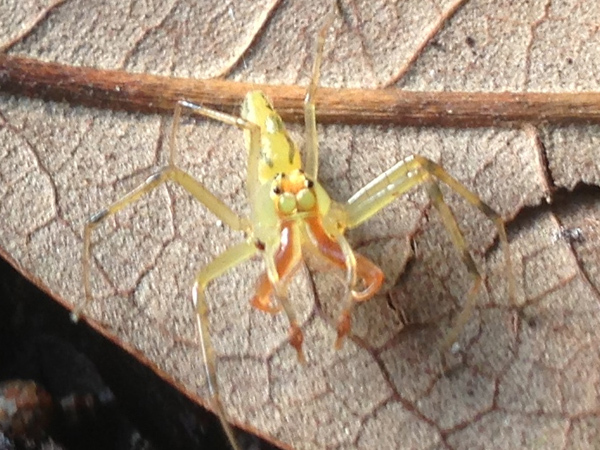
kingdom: Animalia
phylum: Arthropoda
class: Arachnida
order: Araneae
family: Salticidae
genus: Lyssomanes
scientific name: Lyssomanes viridis
